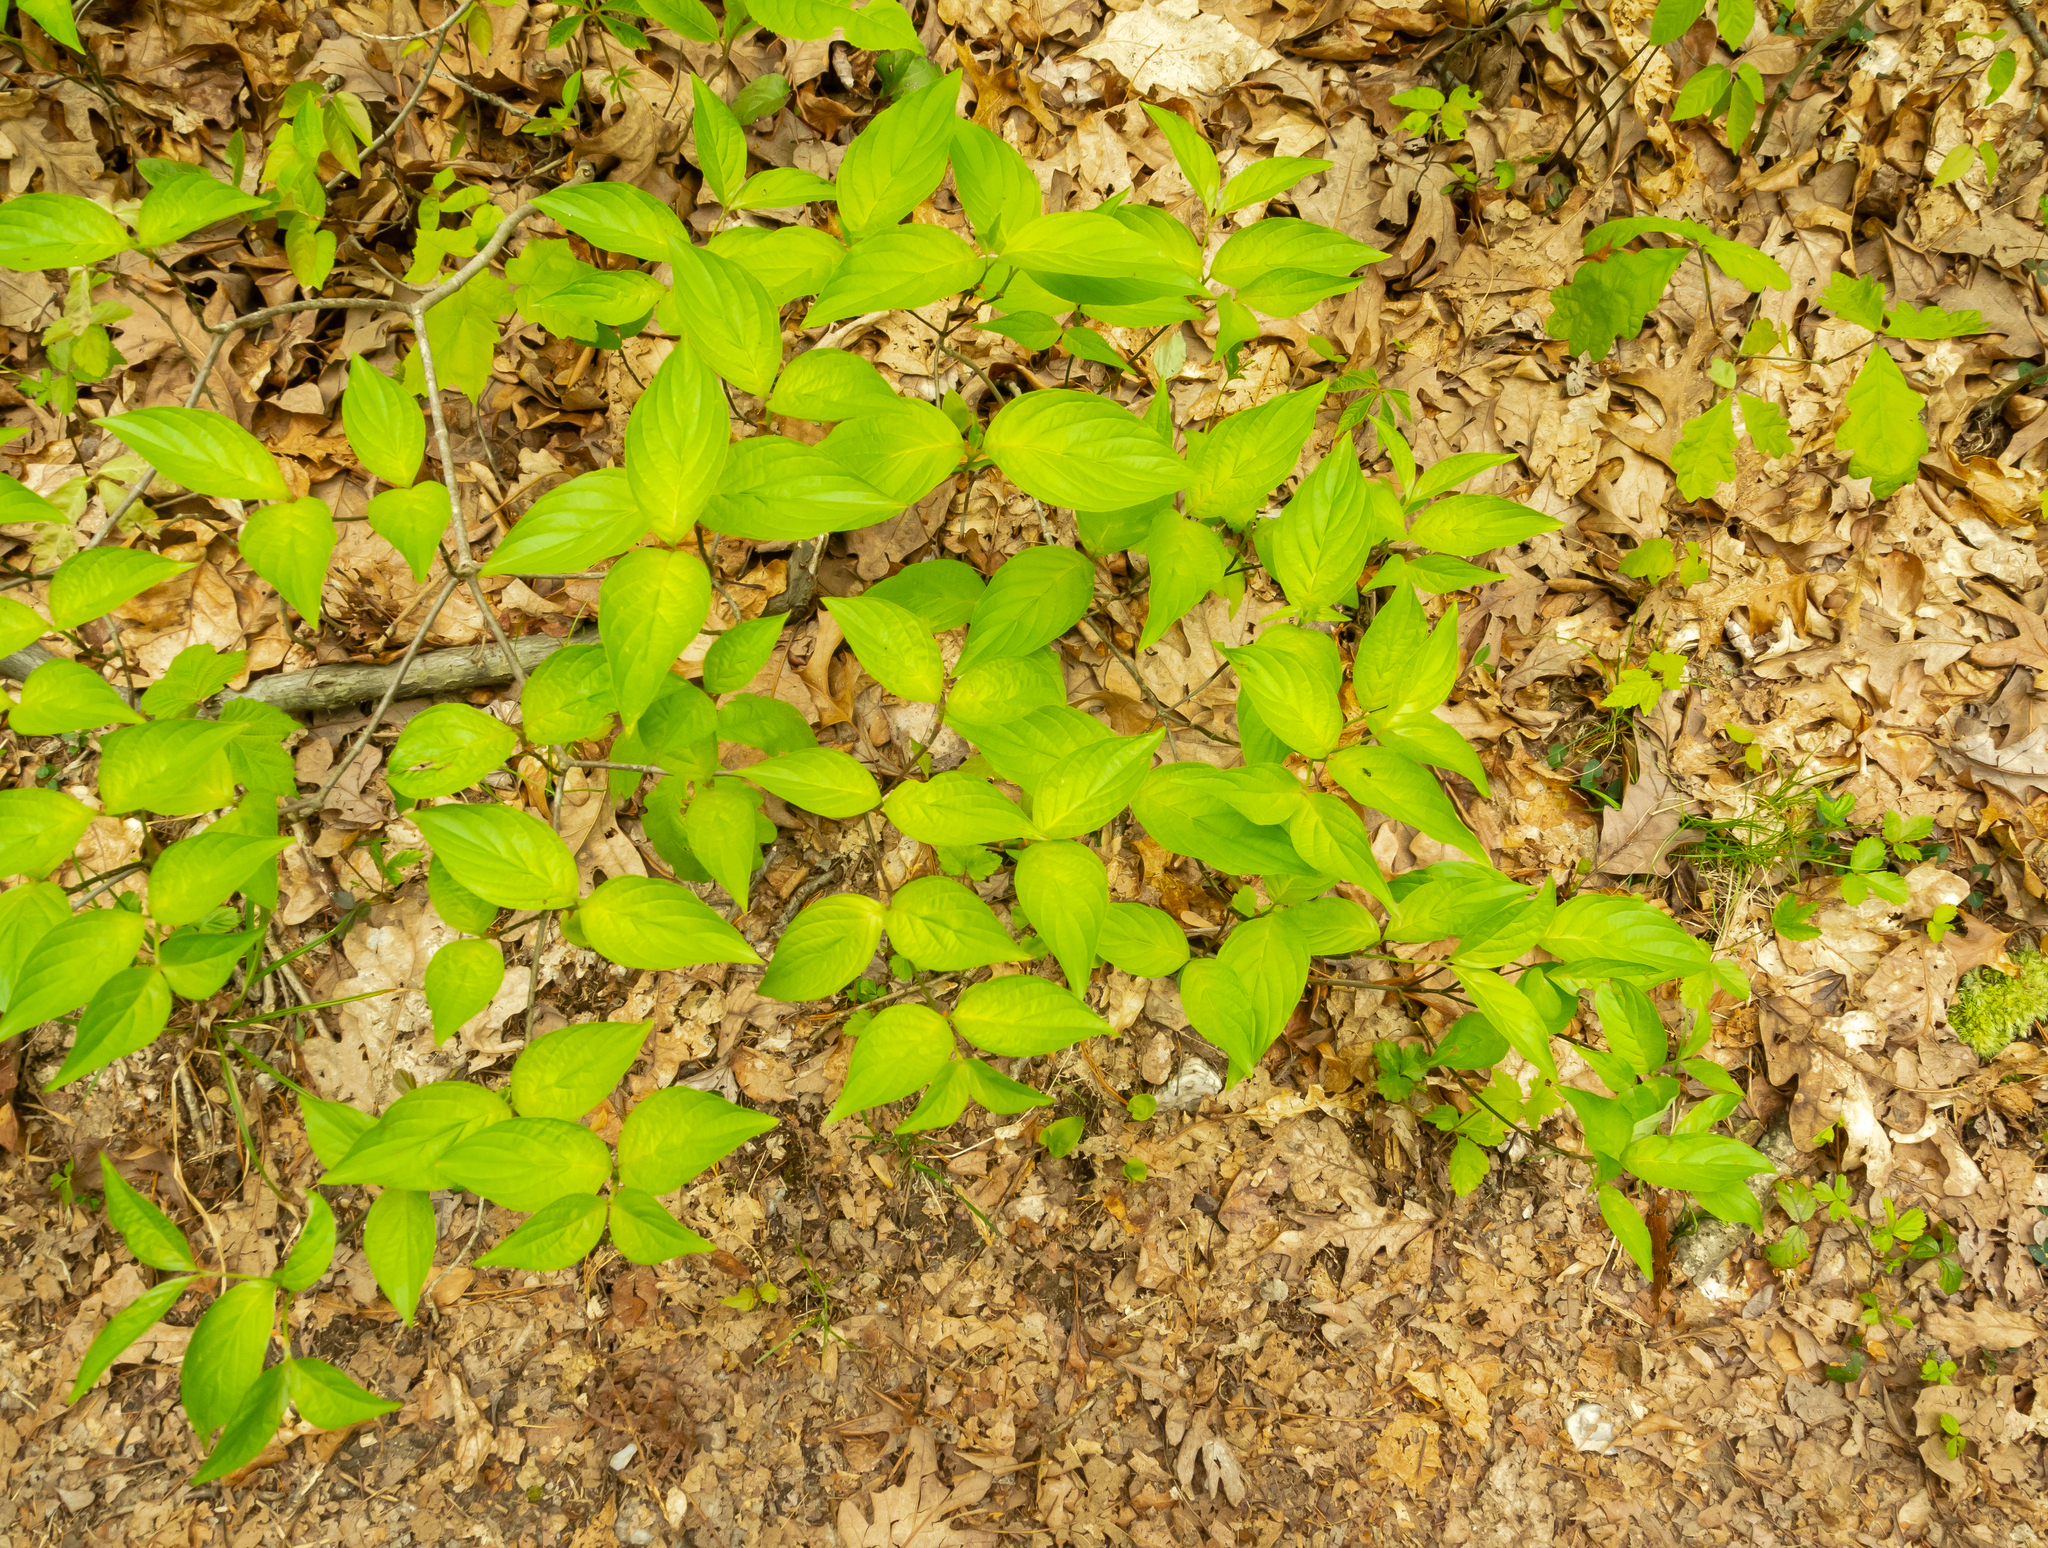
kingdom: Plantae
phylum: Tracheophyta
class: Magnoliopsida
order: Cornales
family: Cornaceae
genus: Cornus
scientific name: Cornus florida
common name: Flowering dogwood
